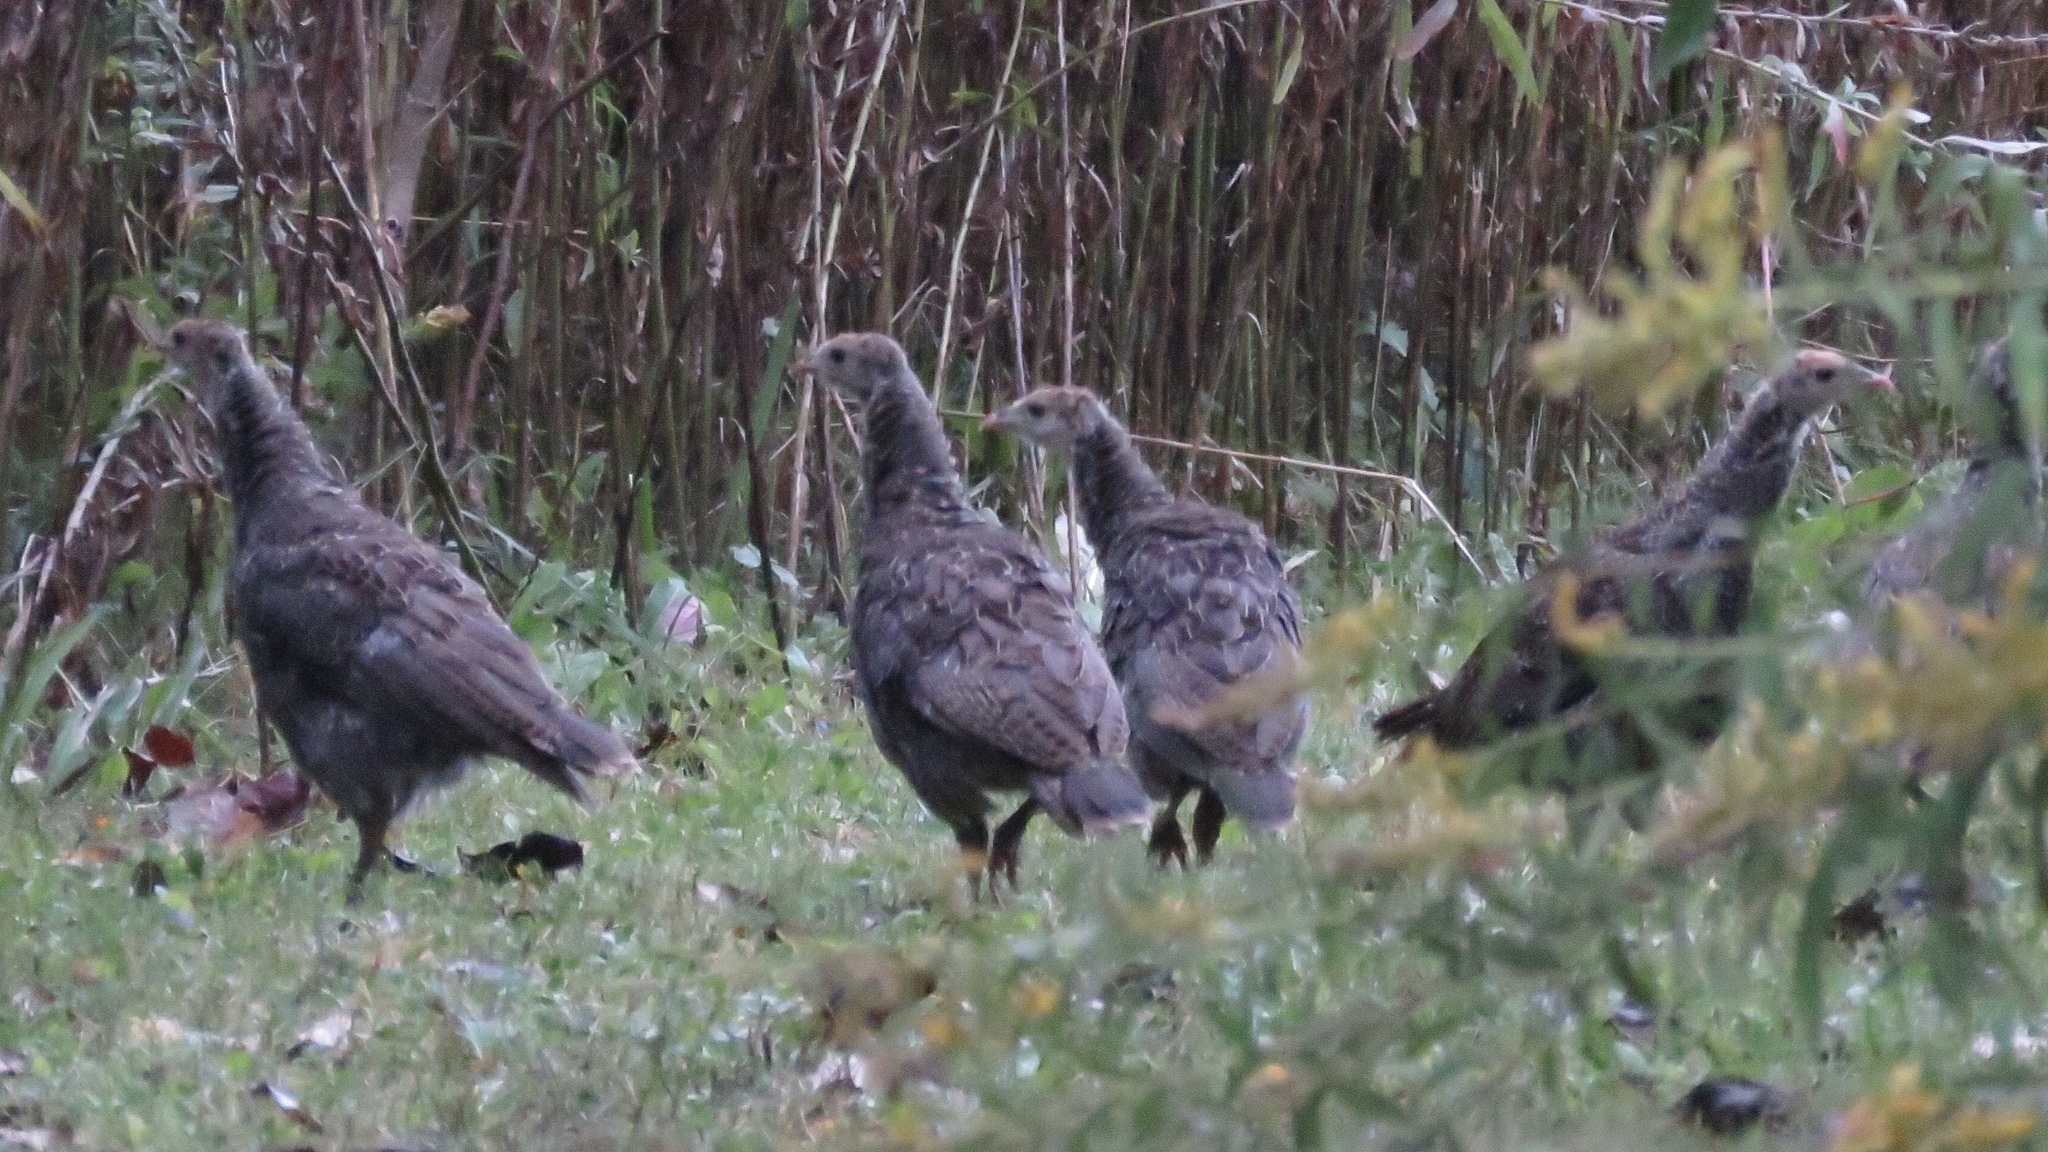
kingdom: Animalia
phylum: Chordata
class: Aves
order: Galliformes
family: Phasianidae
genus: Meleagris
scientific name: Meleagris gallopavo
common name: Wild turkey
